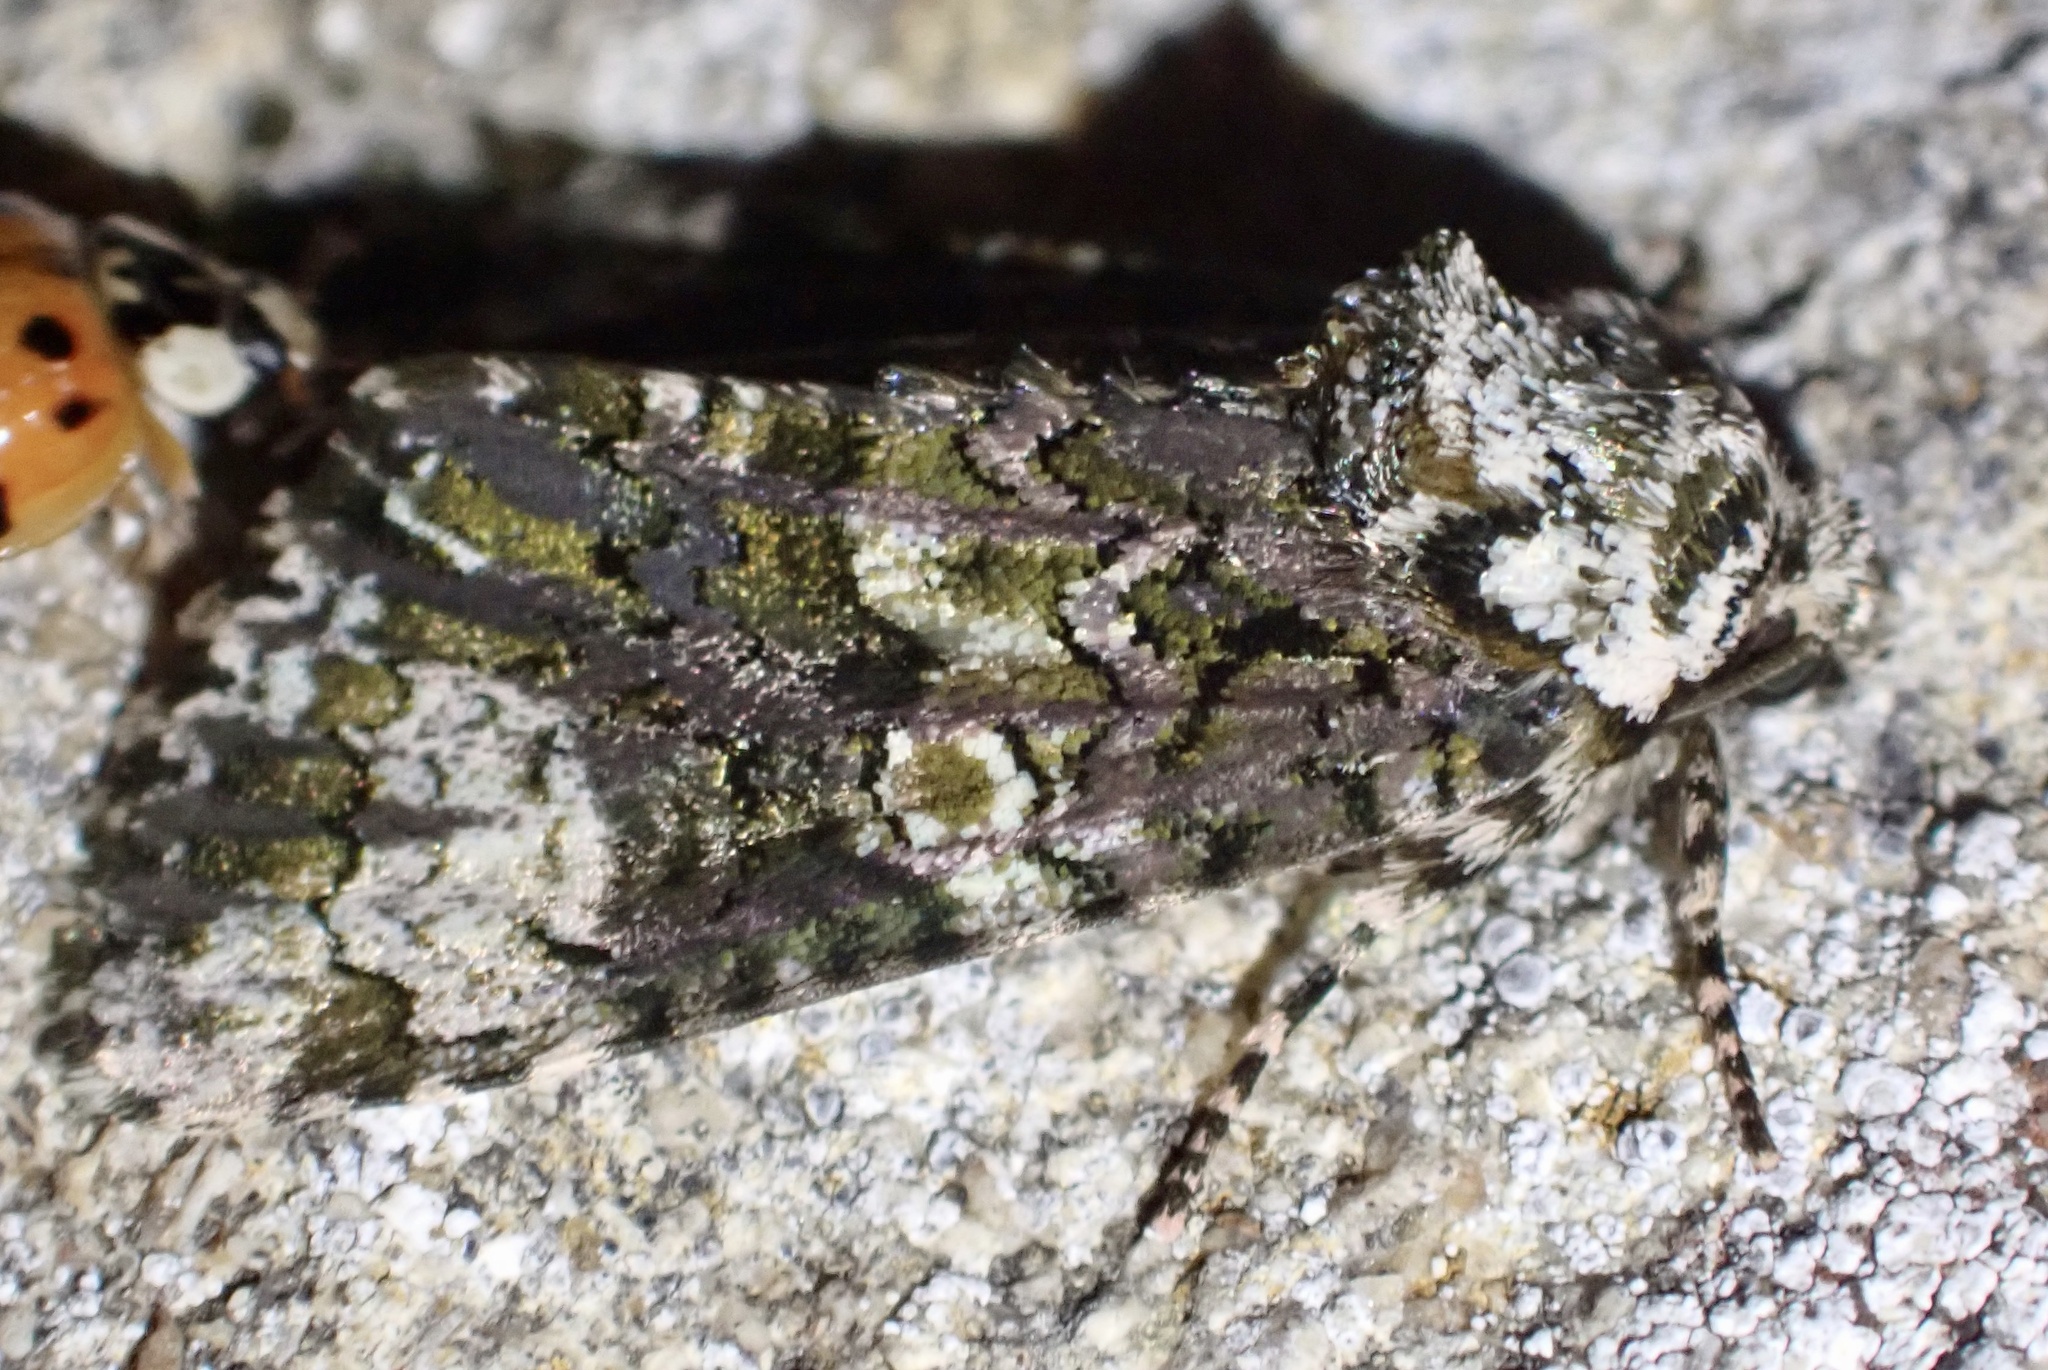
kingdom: Animalia
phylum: Arthropoda
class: Insecta
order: Lepidoptera
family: Noctuidae
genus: Craniophora
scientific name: Craniophora ligustri
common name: Coronet
